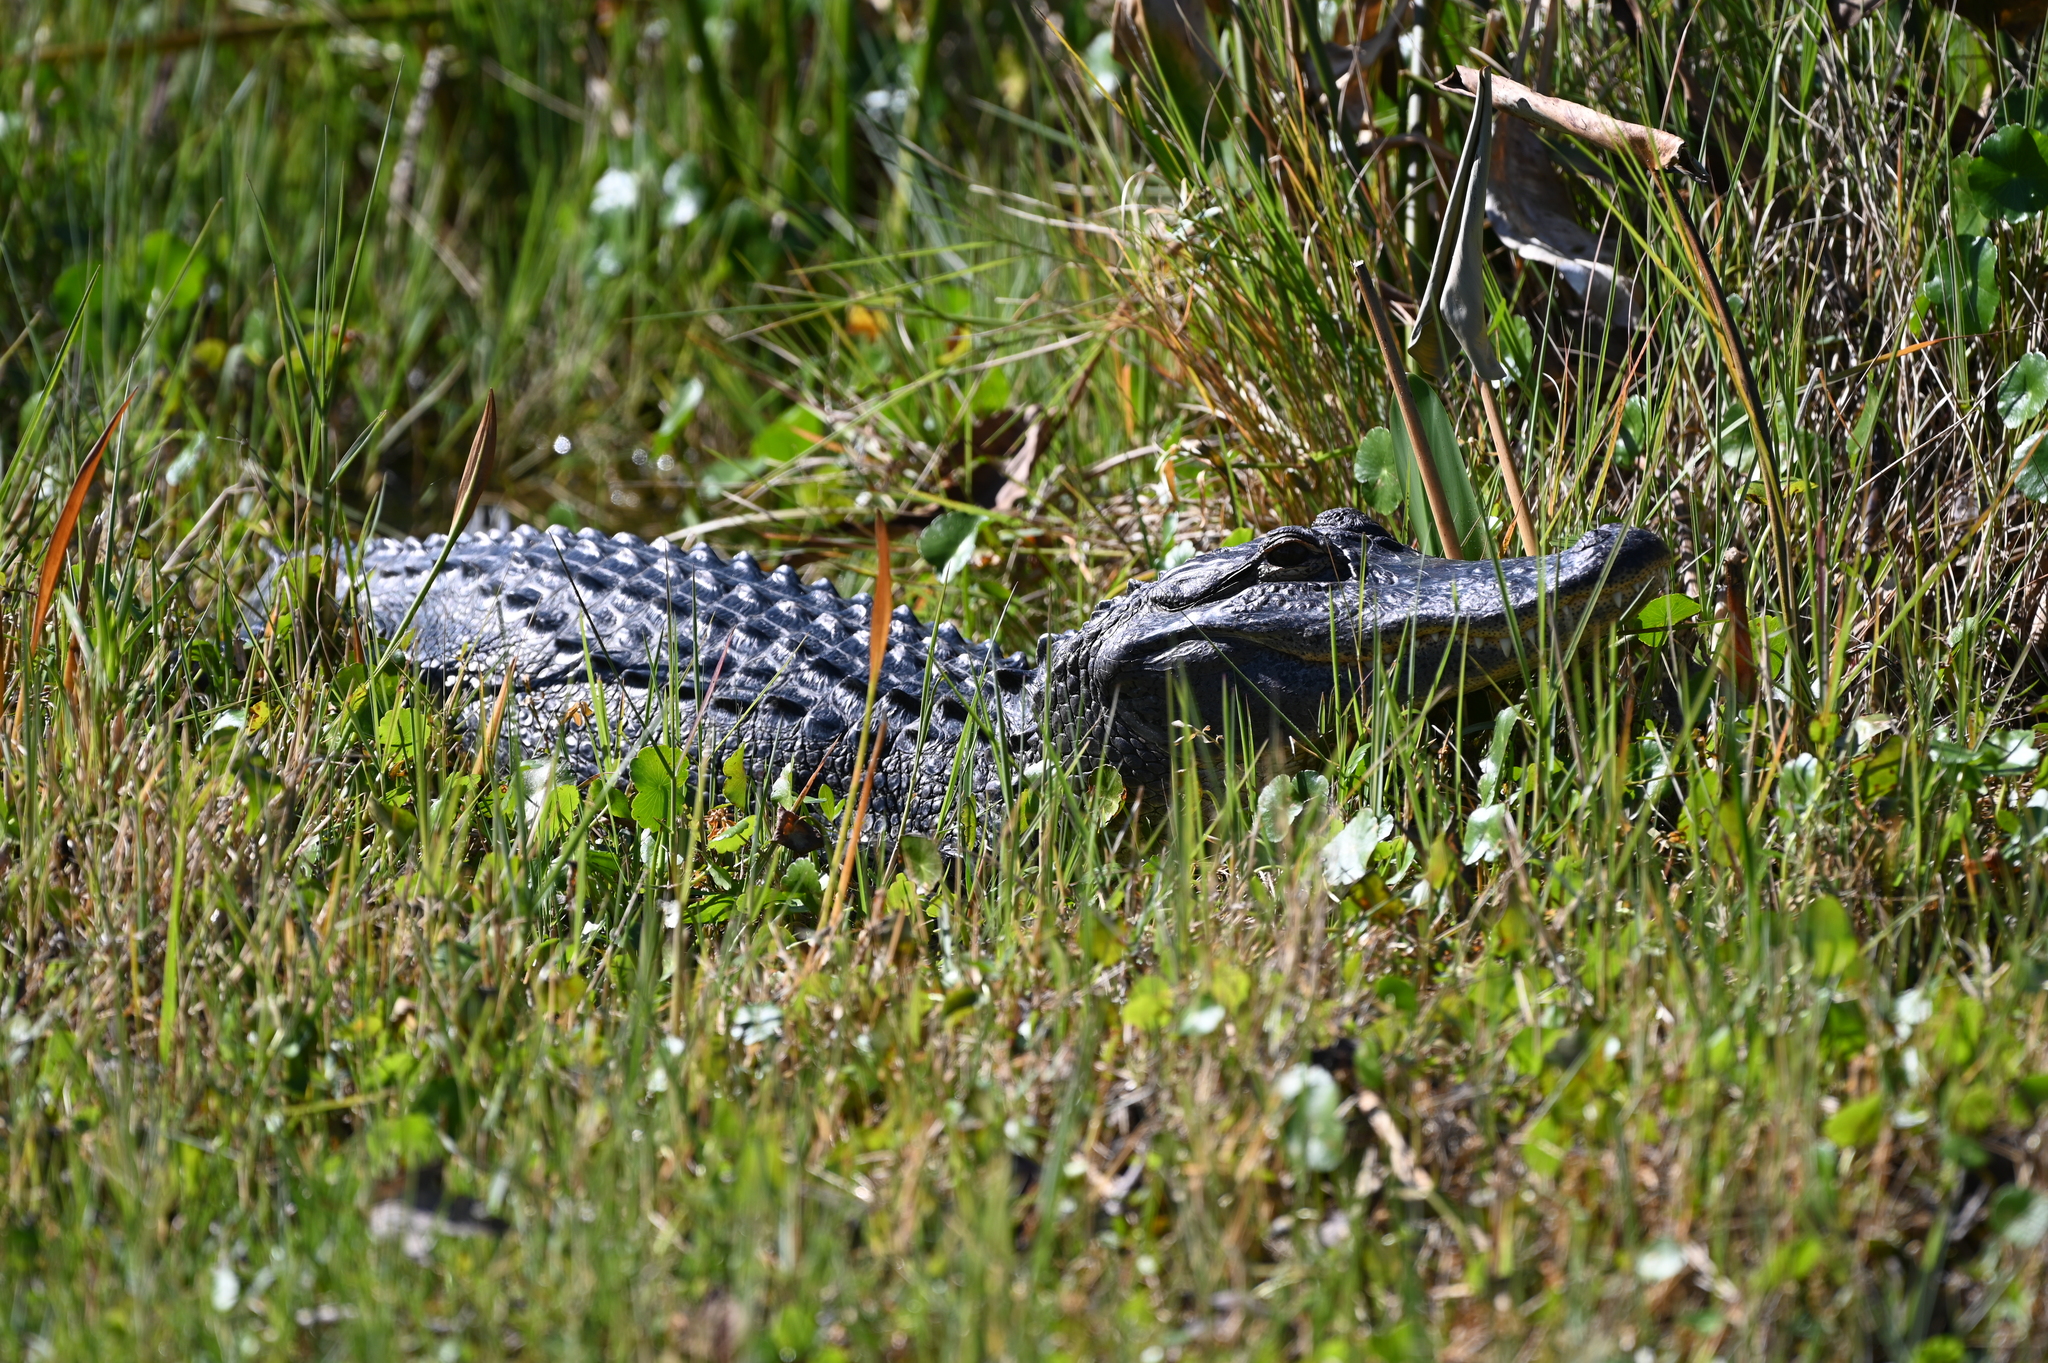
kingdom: Animalia
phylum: Chordata
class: Crocodylia
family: Alligatoridae
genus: Alligator
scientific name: Alligator mississippiensis
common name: American alligator
